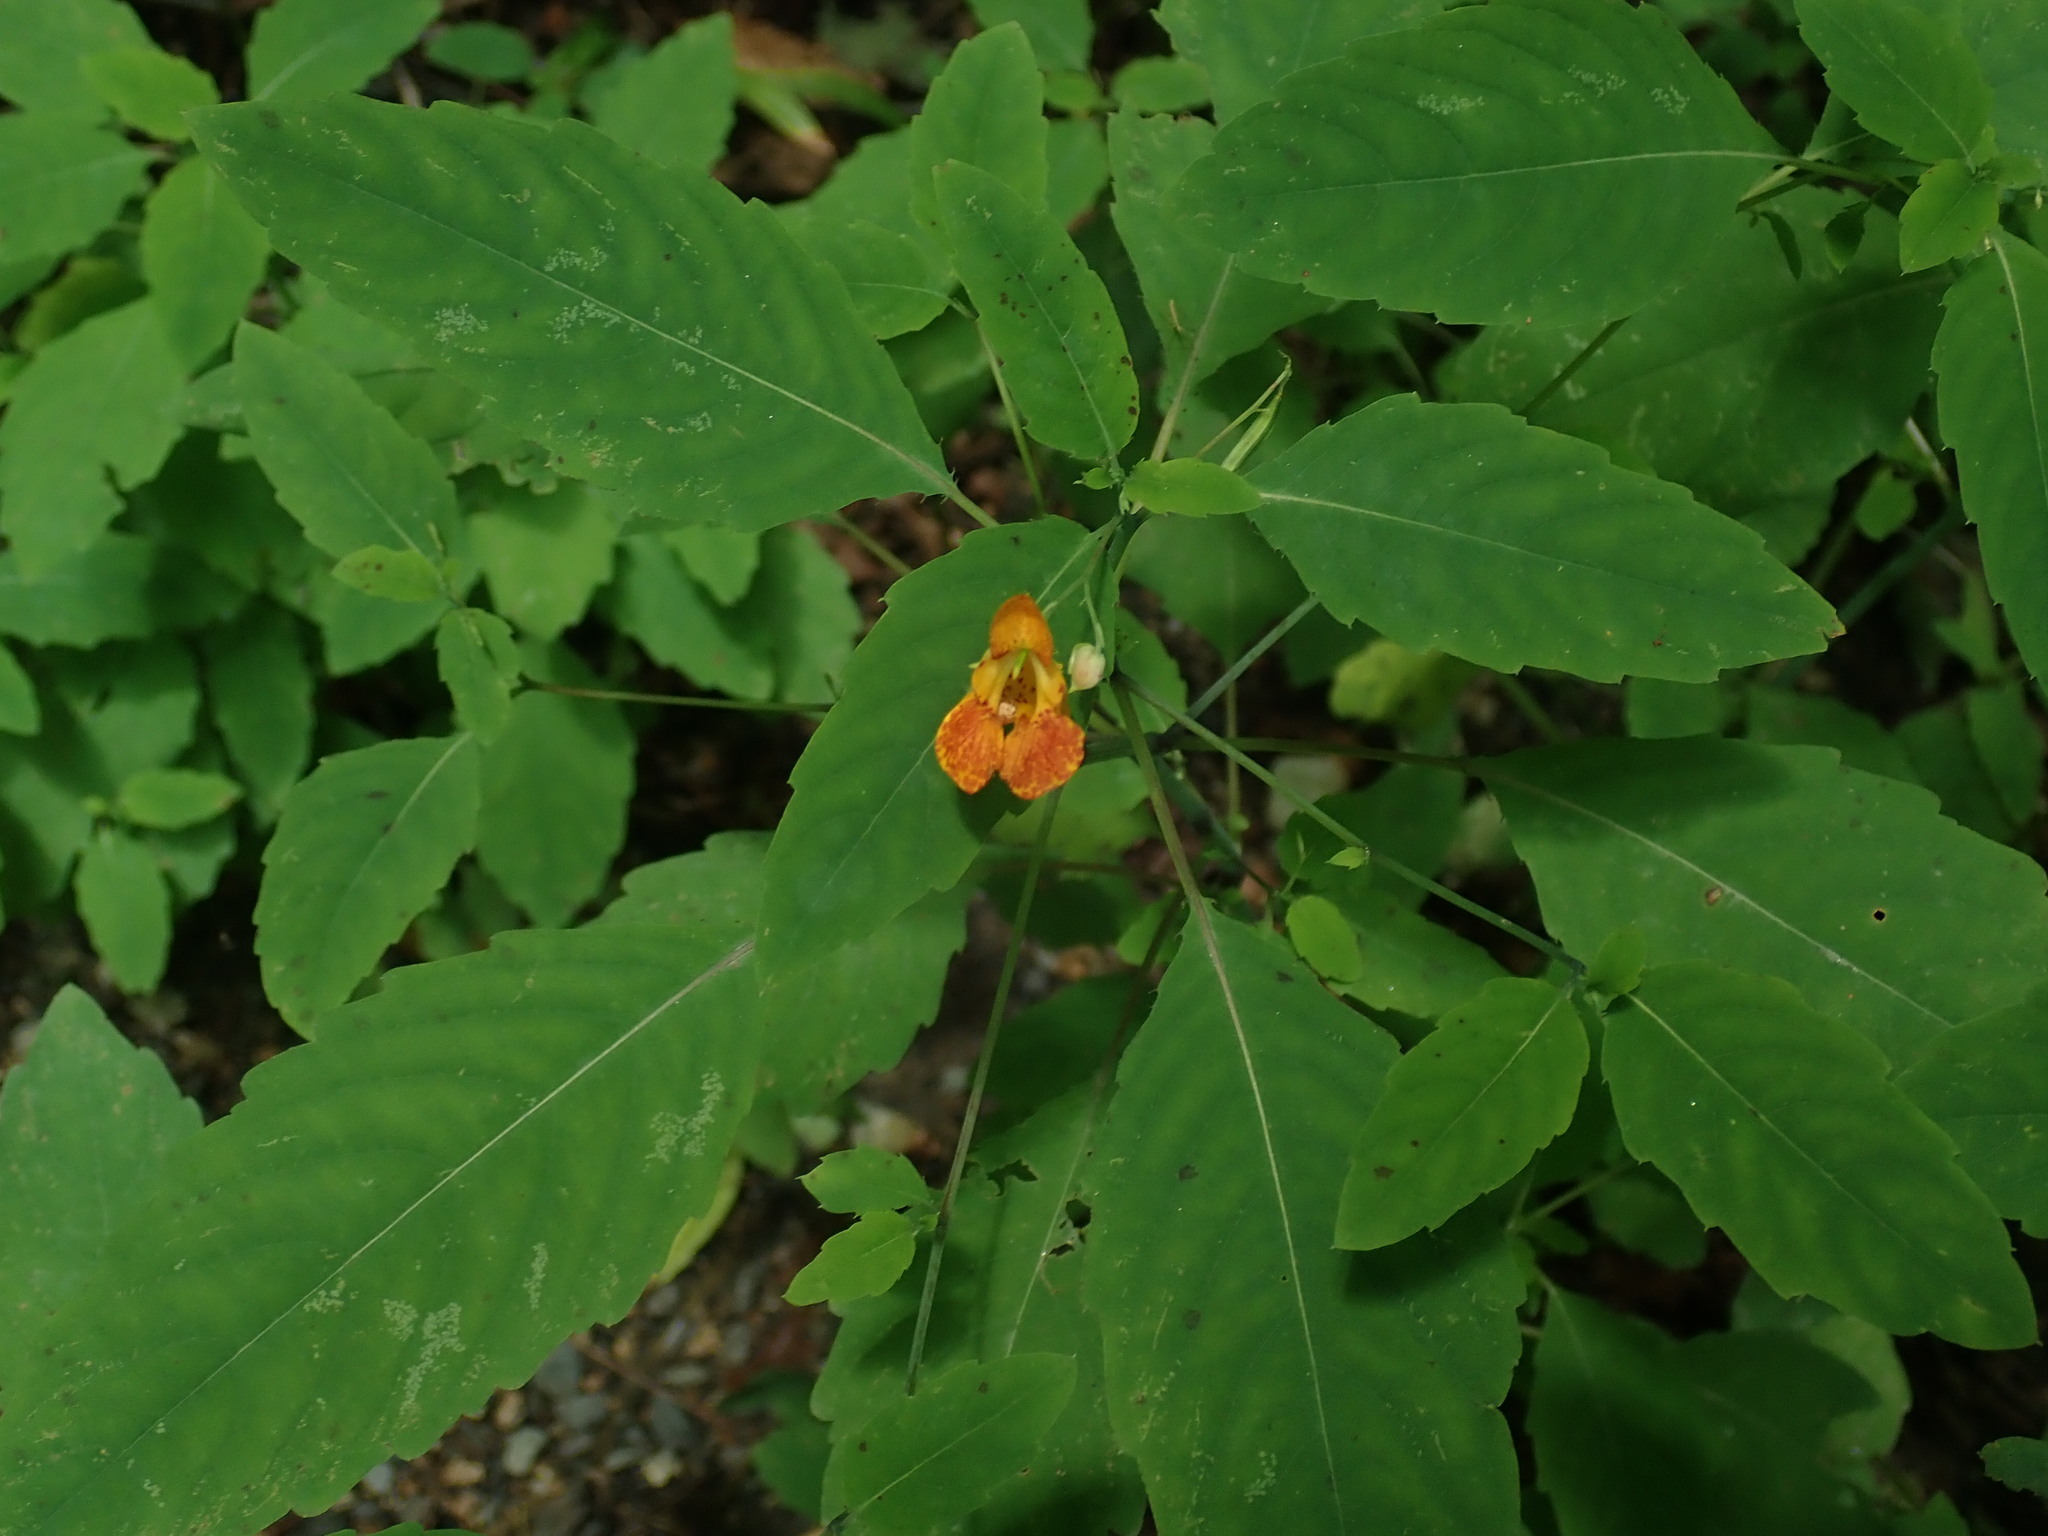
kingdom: Plantae
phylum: Tracheophyta
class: Magnoliopsida
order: Ericales
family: Balsaminaceae
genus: Impatiens
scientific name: Impatiens capensis
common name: Orange balsam
